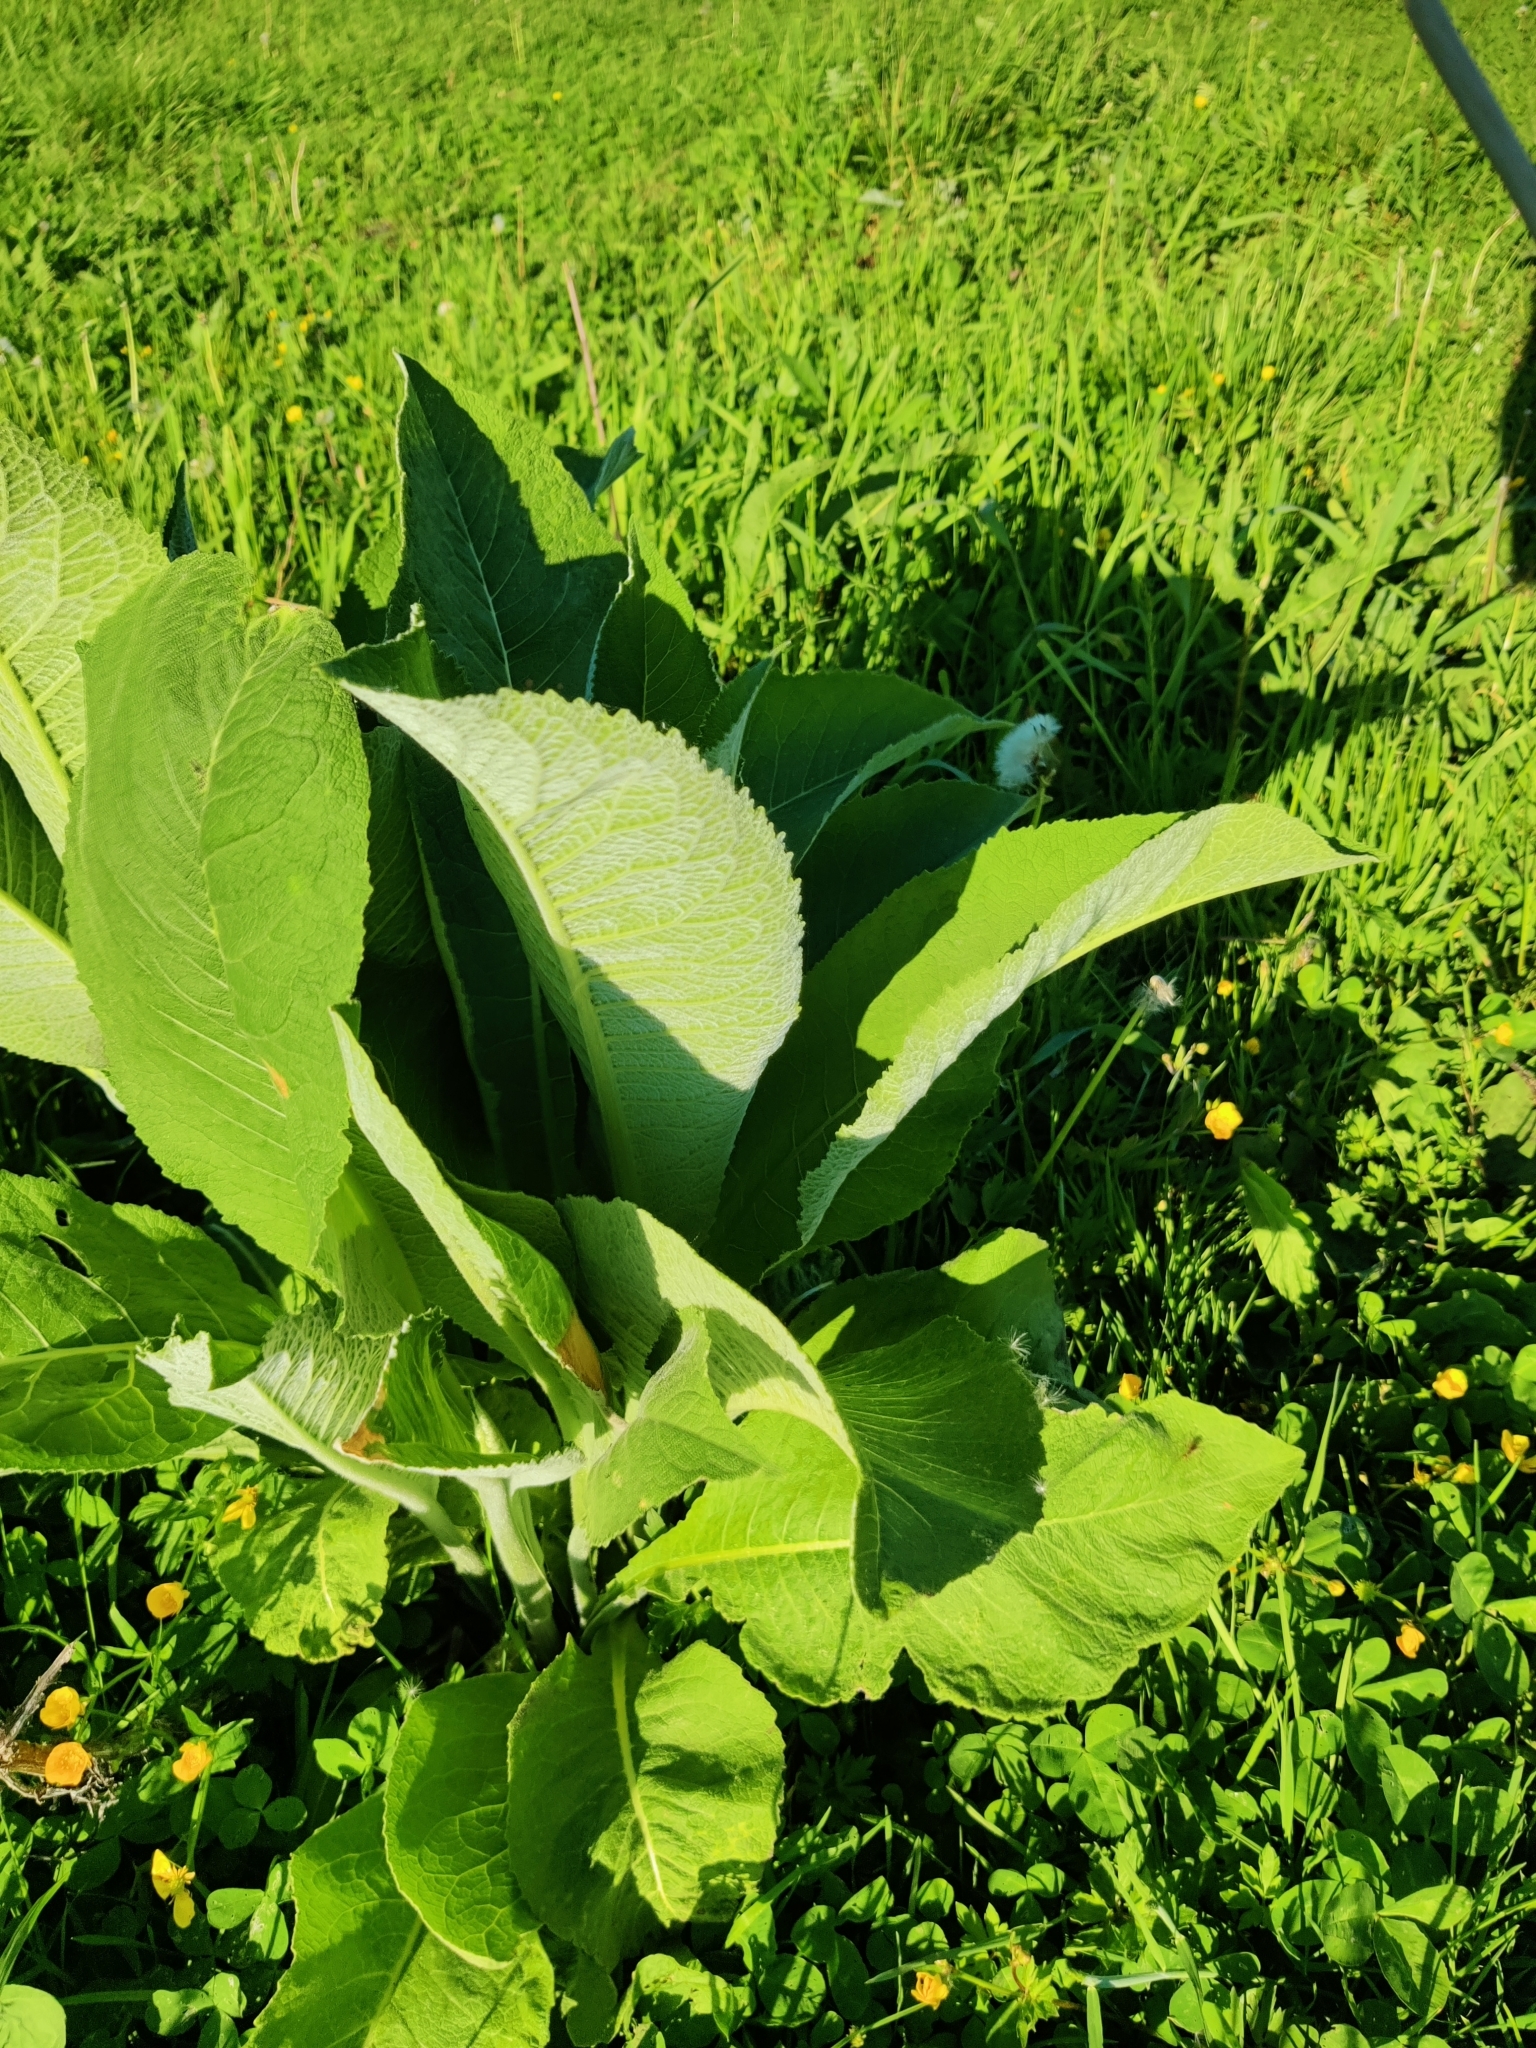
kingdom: Plantae
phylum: Tracheophyta
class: Magnoliopsida
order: Asterales
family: Asteraceae
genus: Inula
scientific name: Inula helenium
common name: Elecampane
